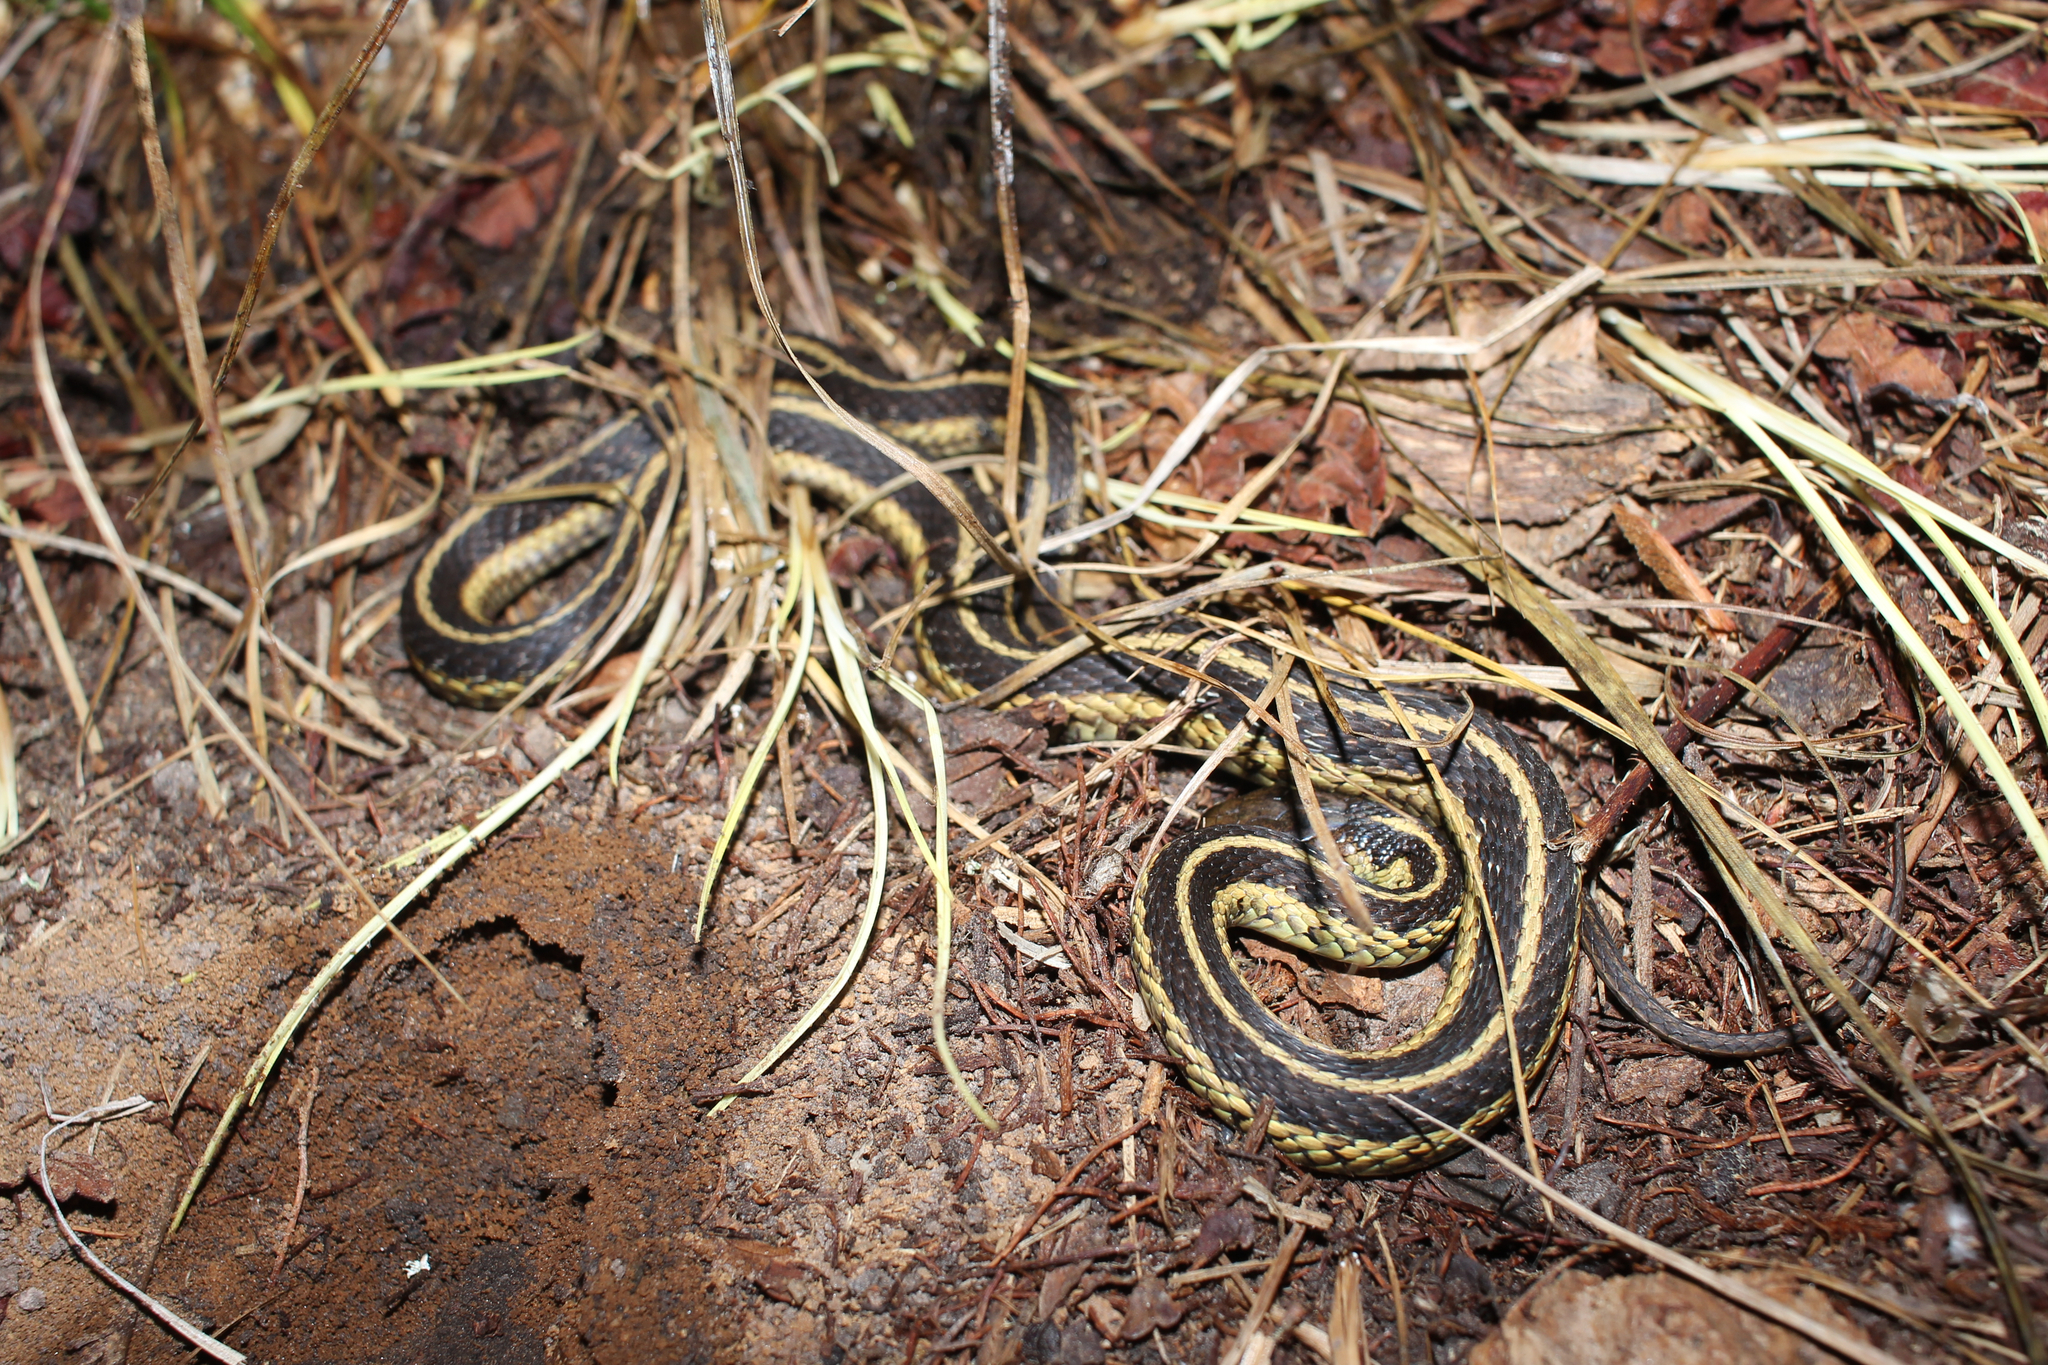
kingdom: Animalia
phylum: Chordata
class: Squamata
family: Colubridae
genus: Thamnophis
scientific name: Thamnophis sirtalis
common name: Common garter snake
